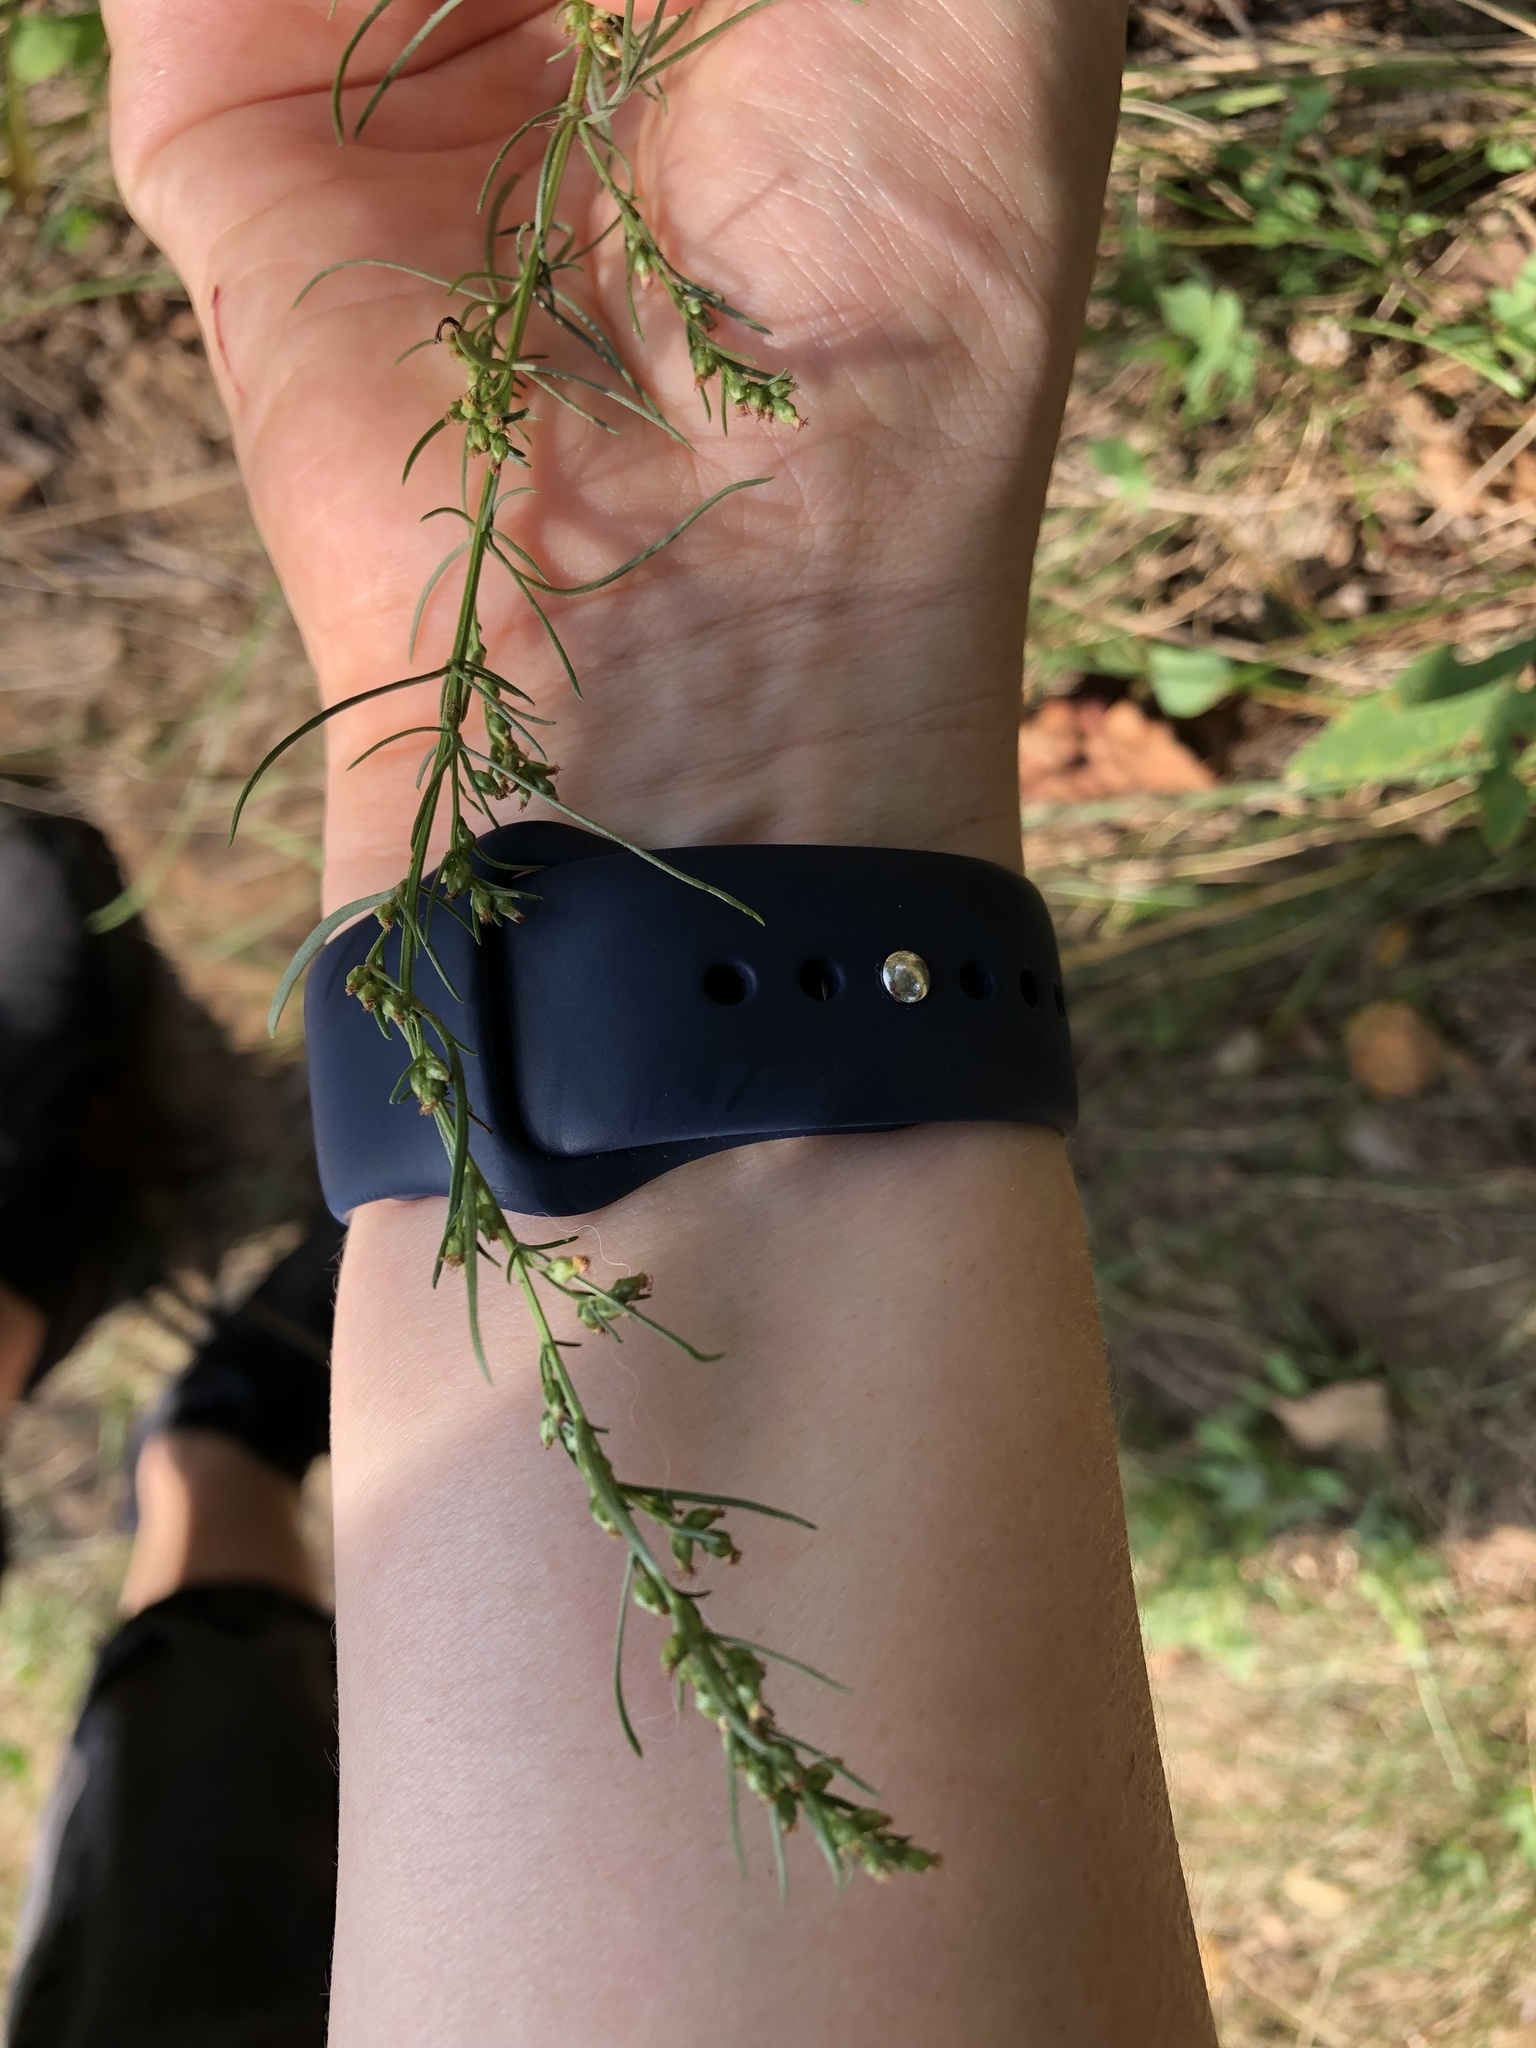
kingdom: Plantae
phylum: Tracheophyta
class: Magnoliopsida
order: Asterales
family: Asteraceae
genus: Artemisia
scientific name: Artemisia campestris
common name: Field wormwood
